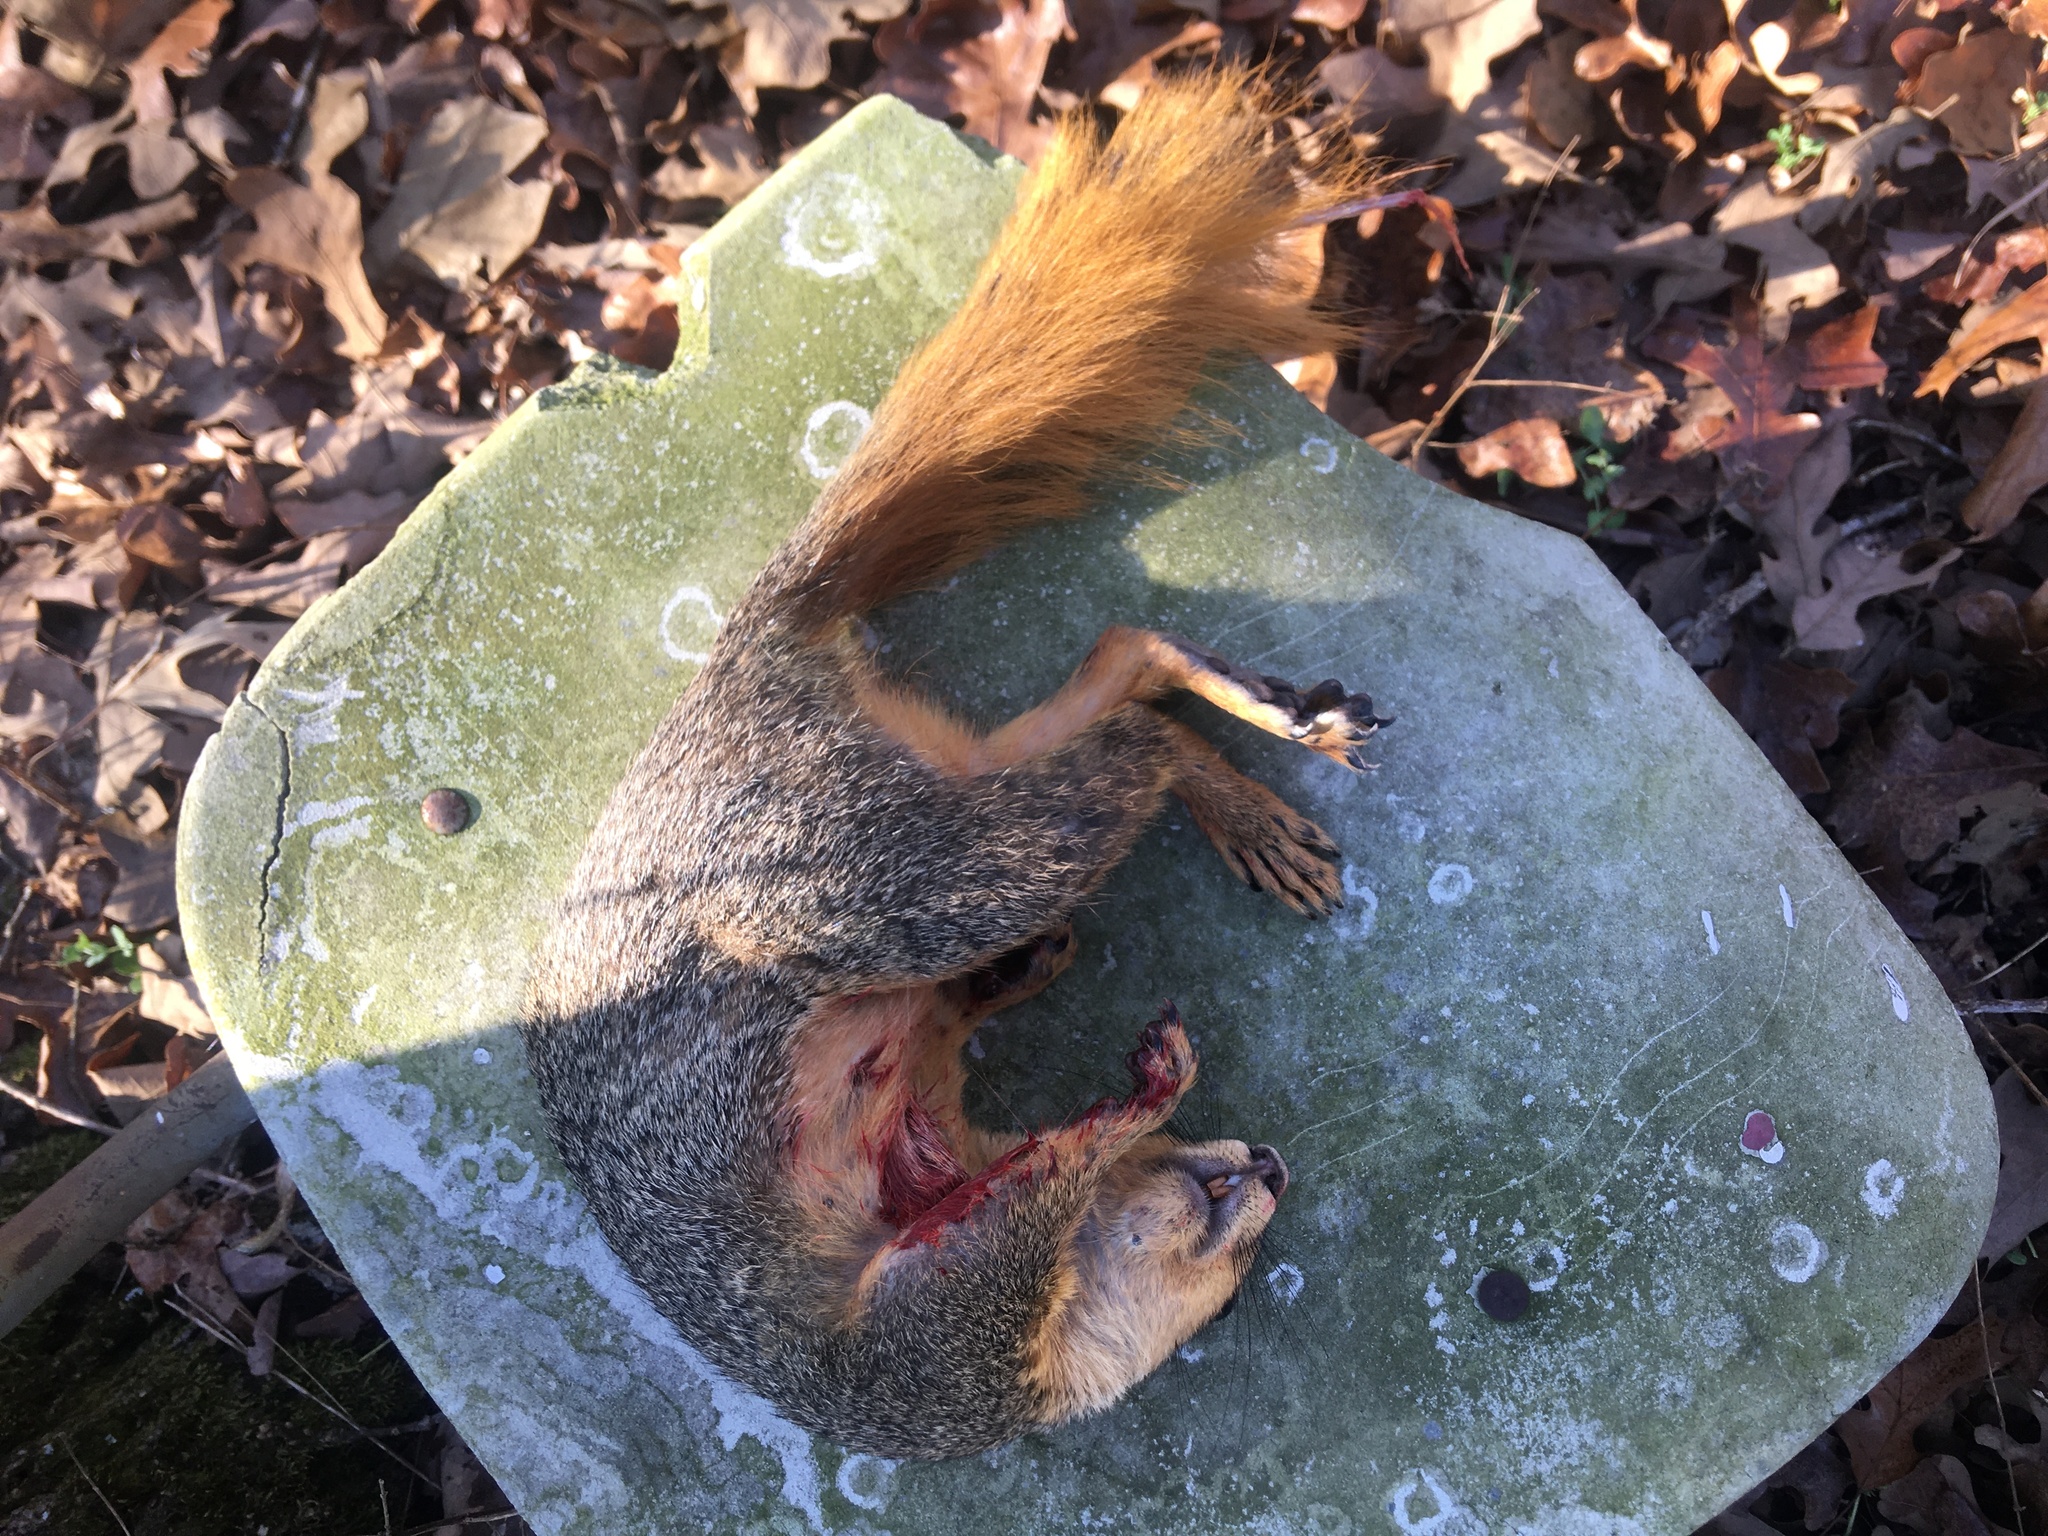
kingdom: Animalia
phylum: Chordata
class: Mammalia
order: Rodentia
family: Sciuridae
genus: Sciurus
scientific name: Sciurus niger
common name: Fox squirrel
